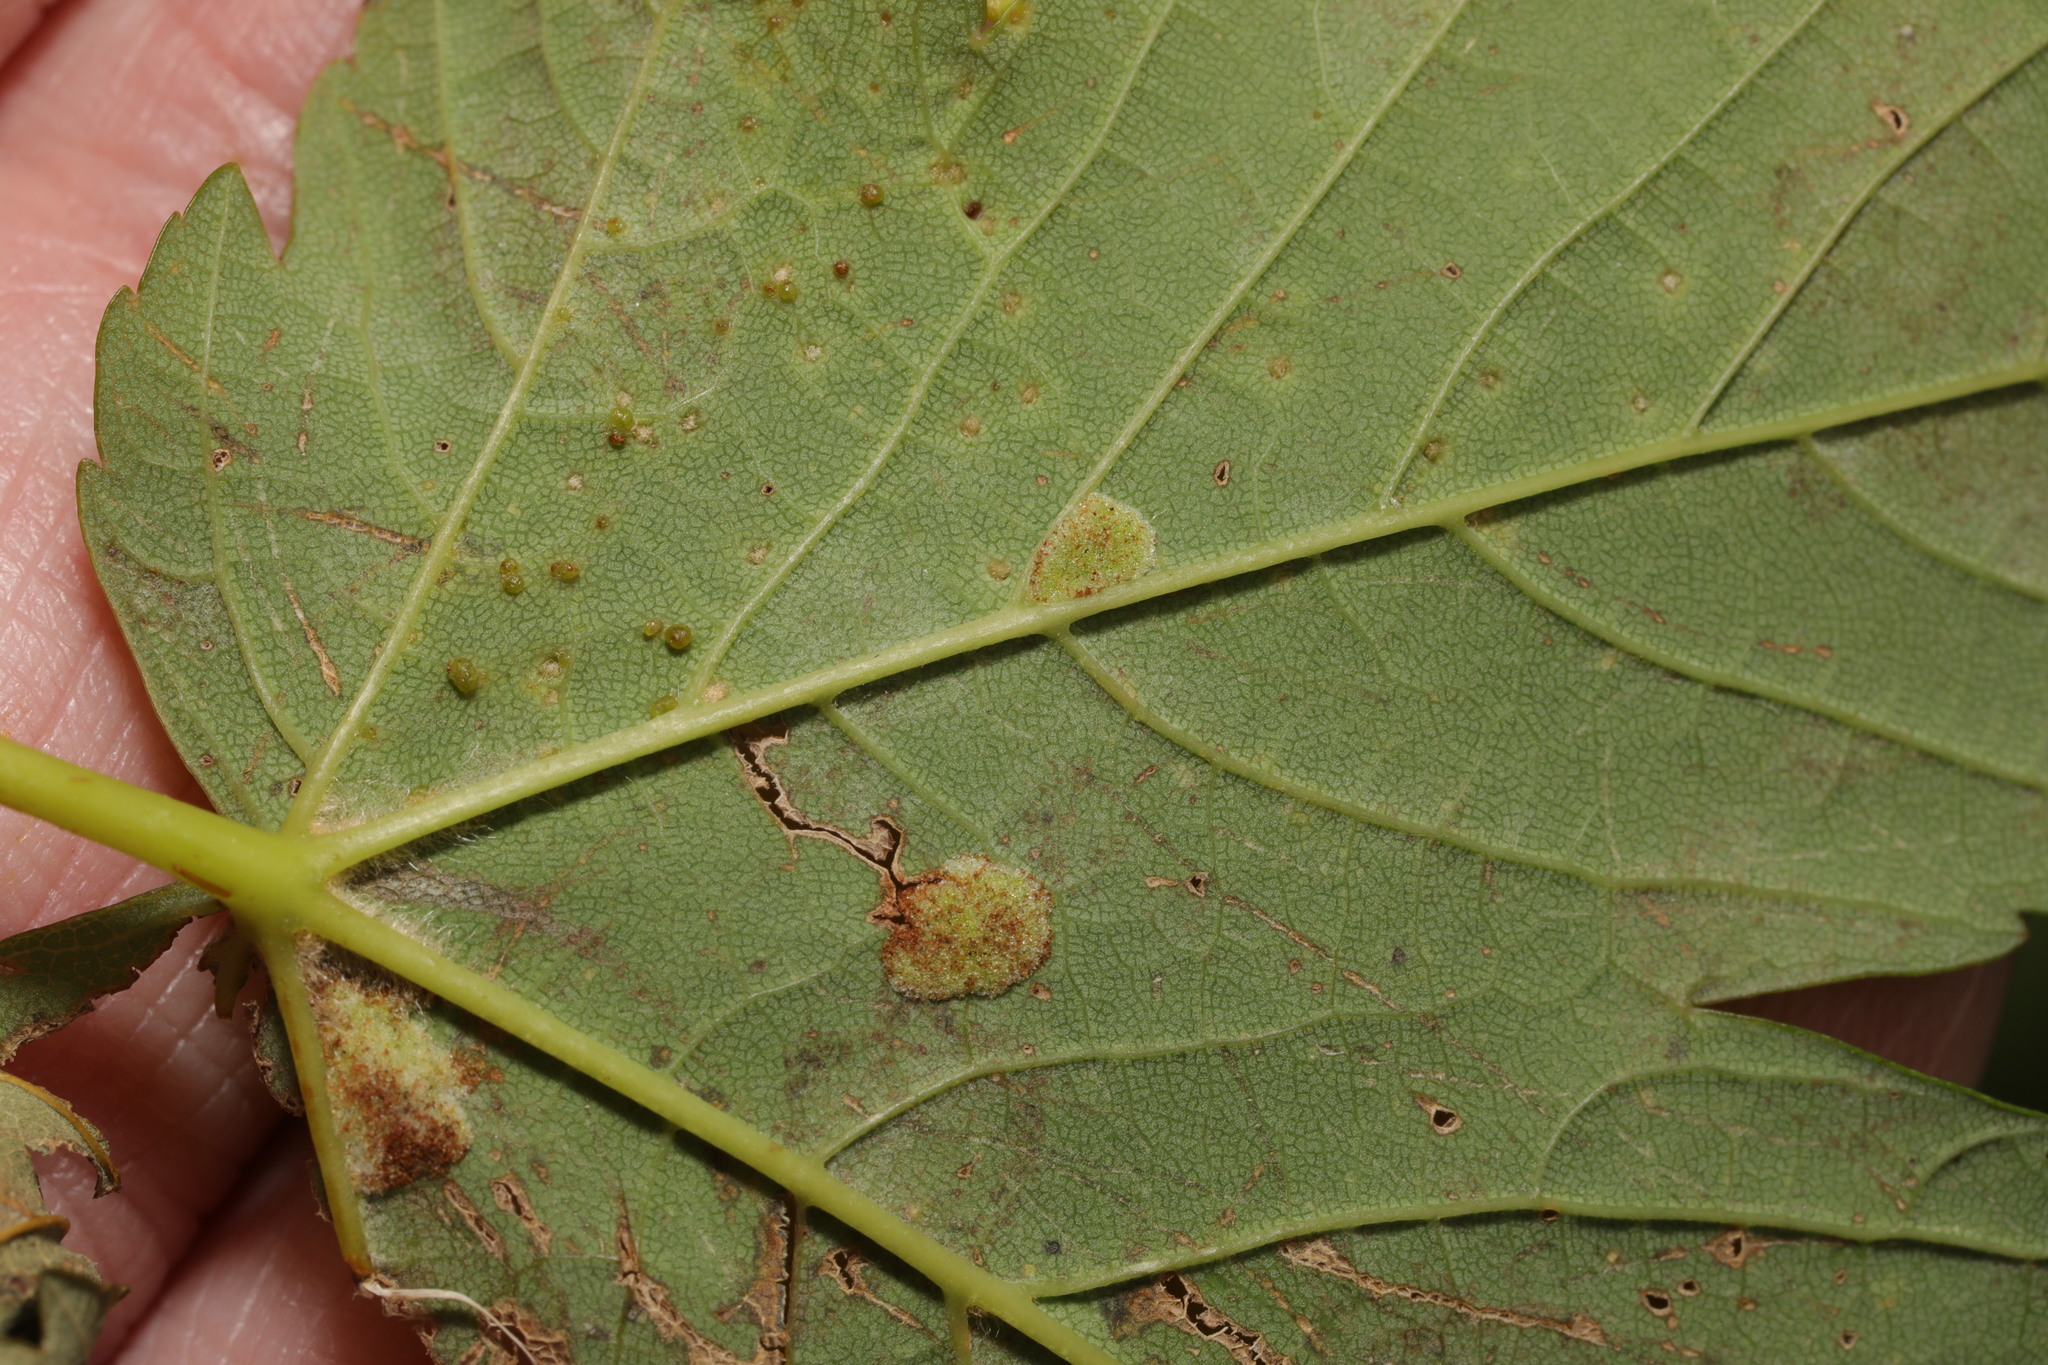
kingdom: Animalia
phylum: Arthropoda
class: Arachnida
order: Trombidiformes
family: Eriophyidae
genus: Aceria
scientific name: Aceria pseudoplatani
